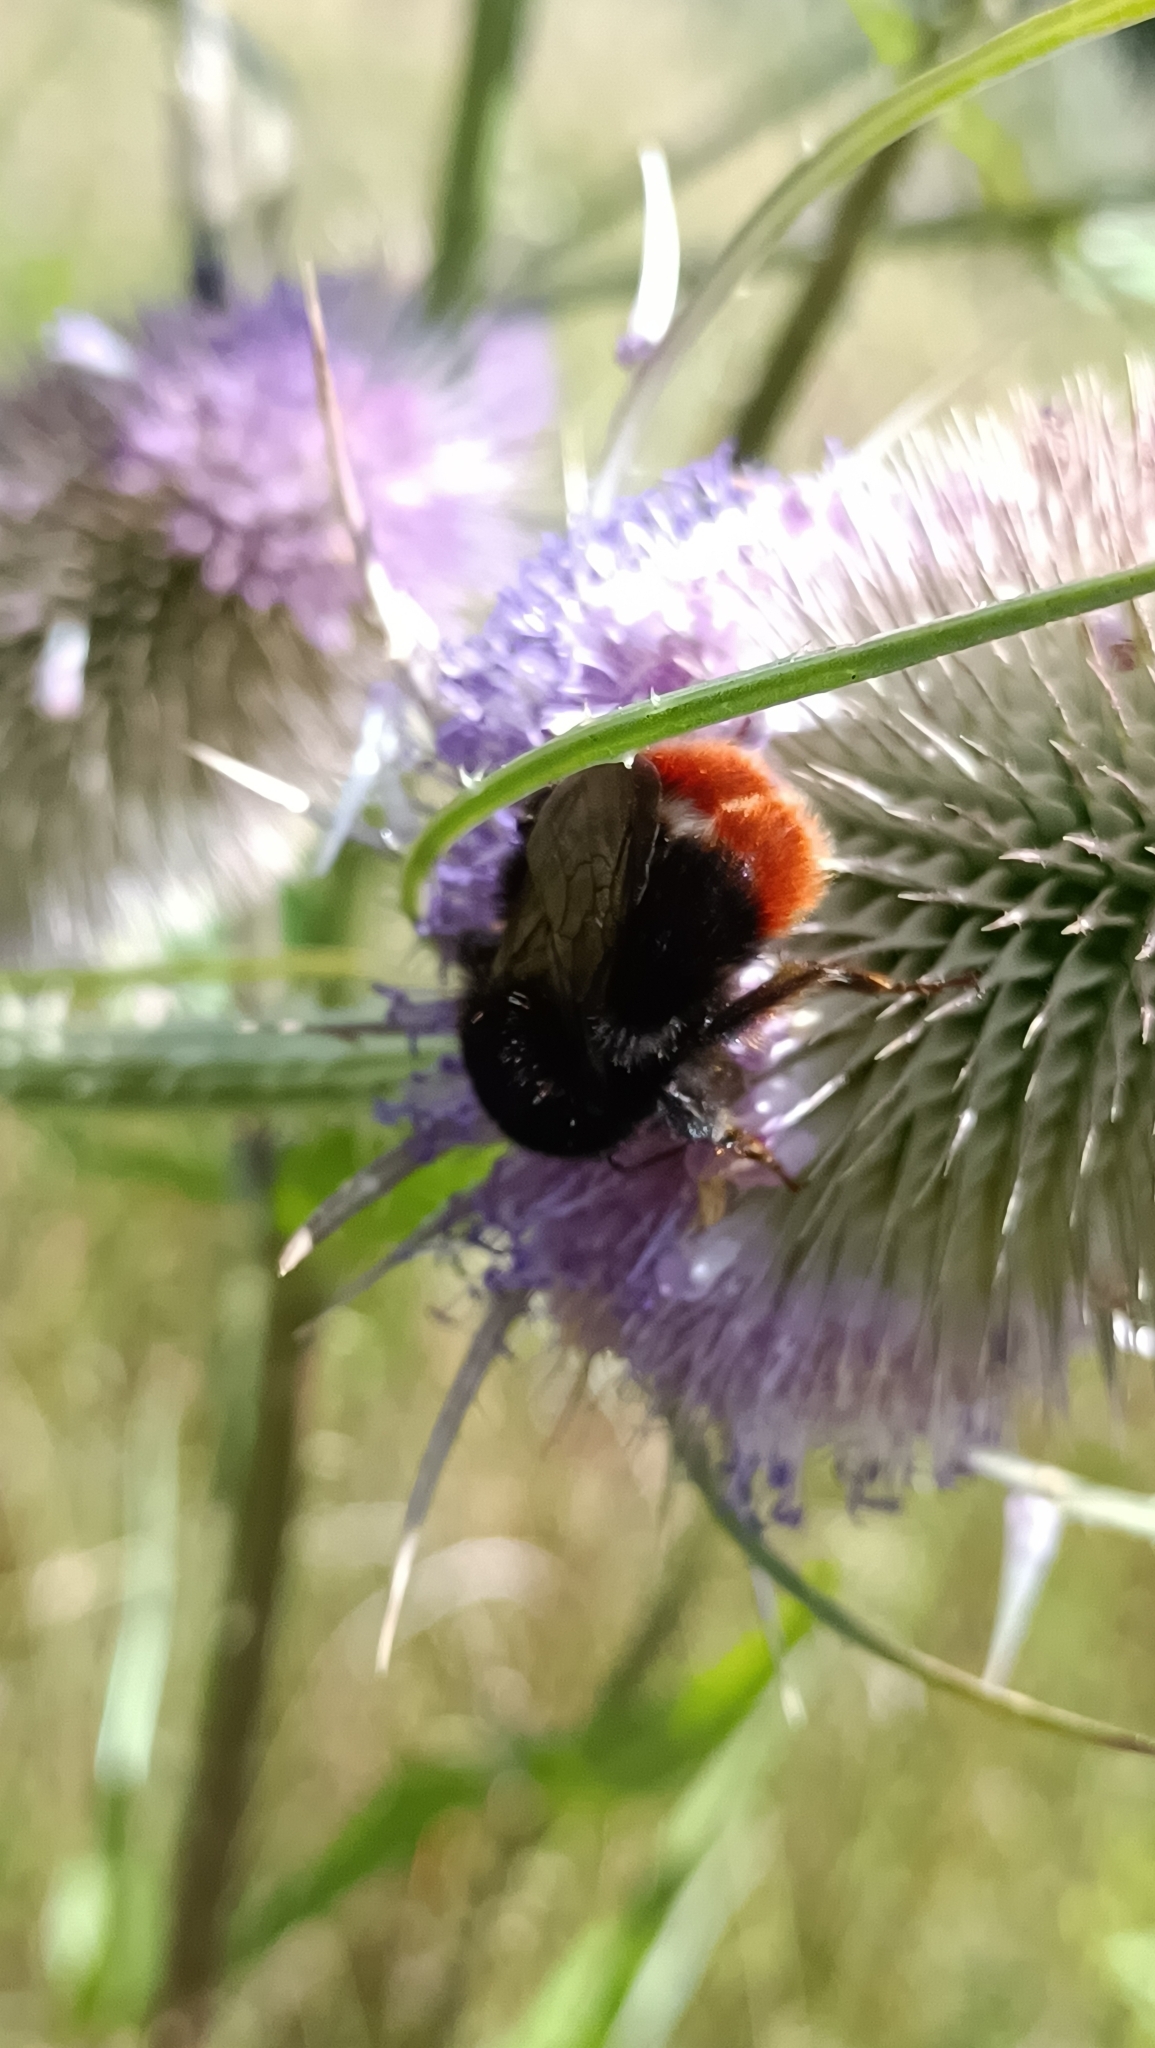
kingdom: Animalia
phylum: Arthropoda
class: Insecta
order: Hymenoptera
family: Apidae
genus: Bombus
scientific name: Bombus lapidarius
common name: Large red-tailed humble-bee
